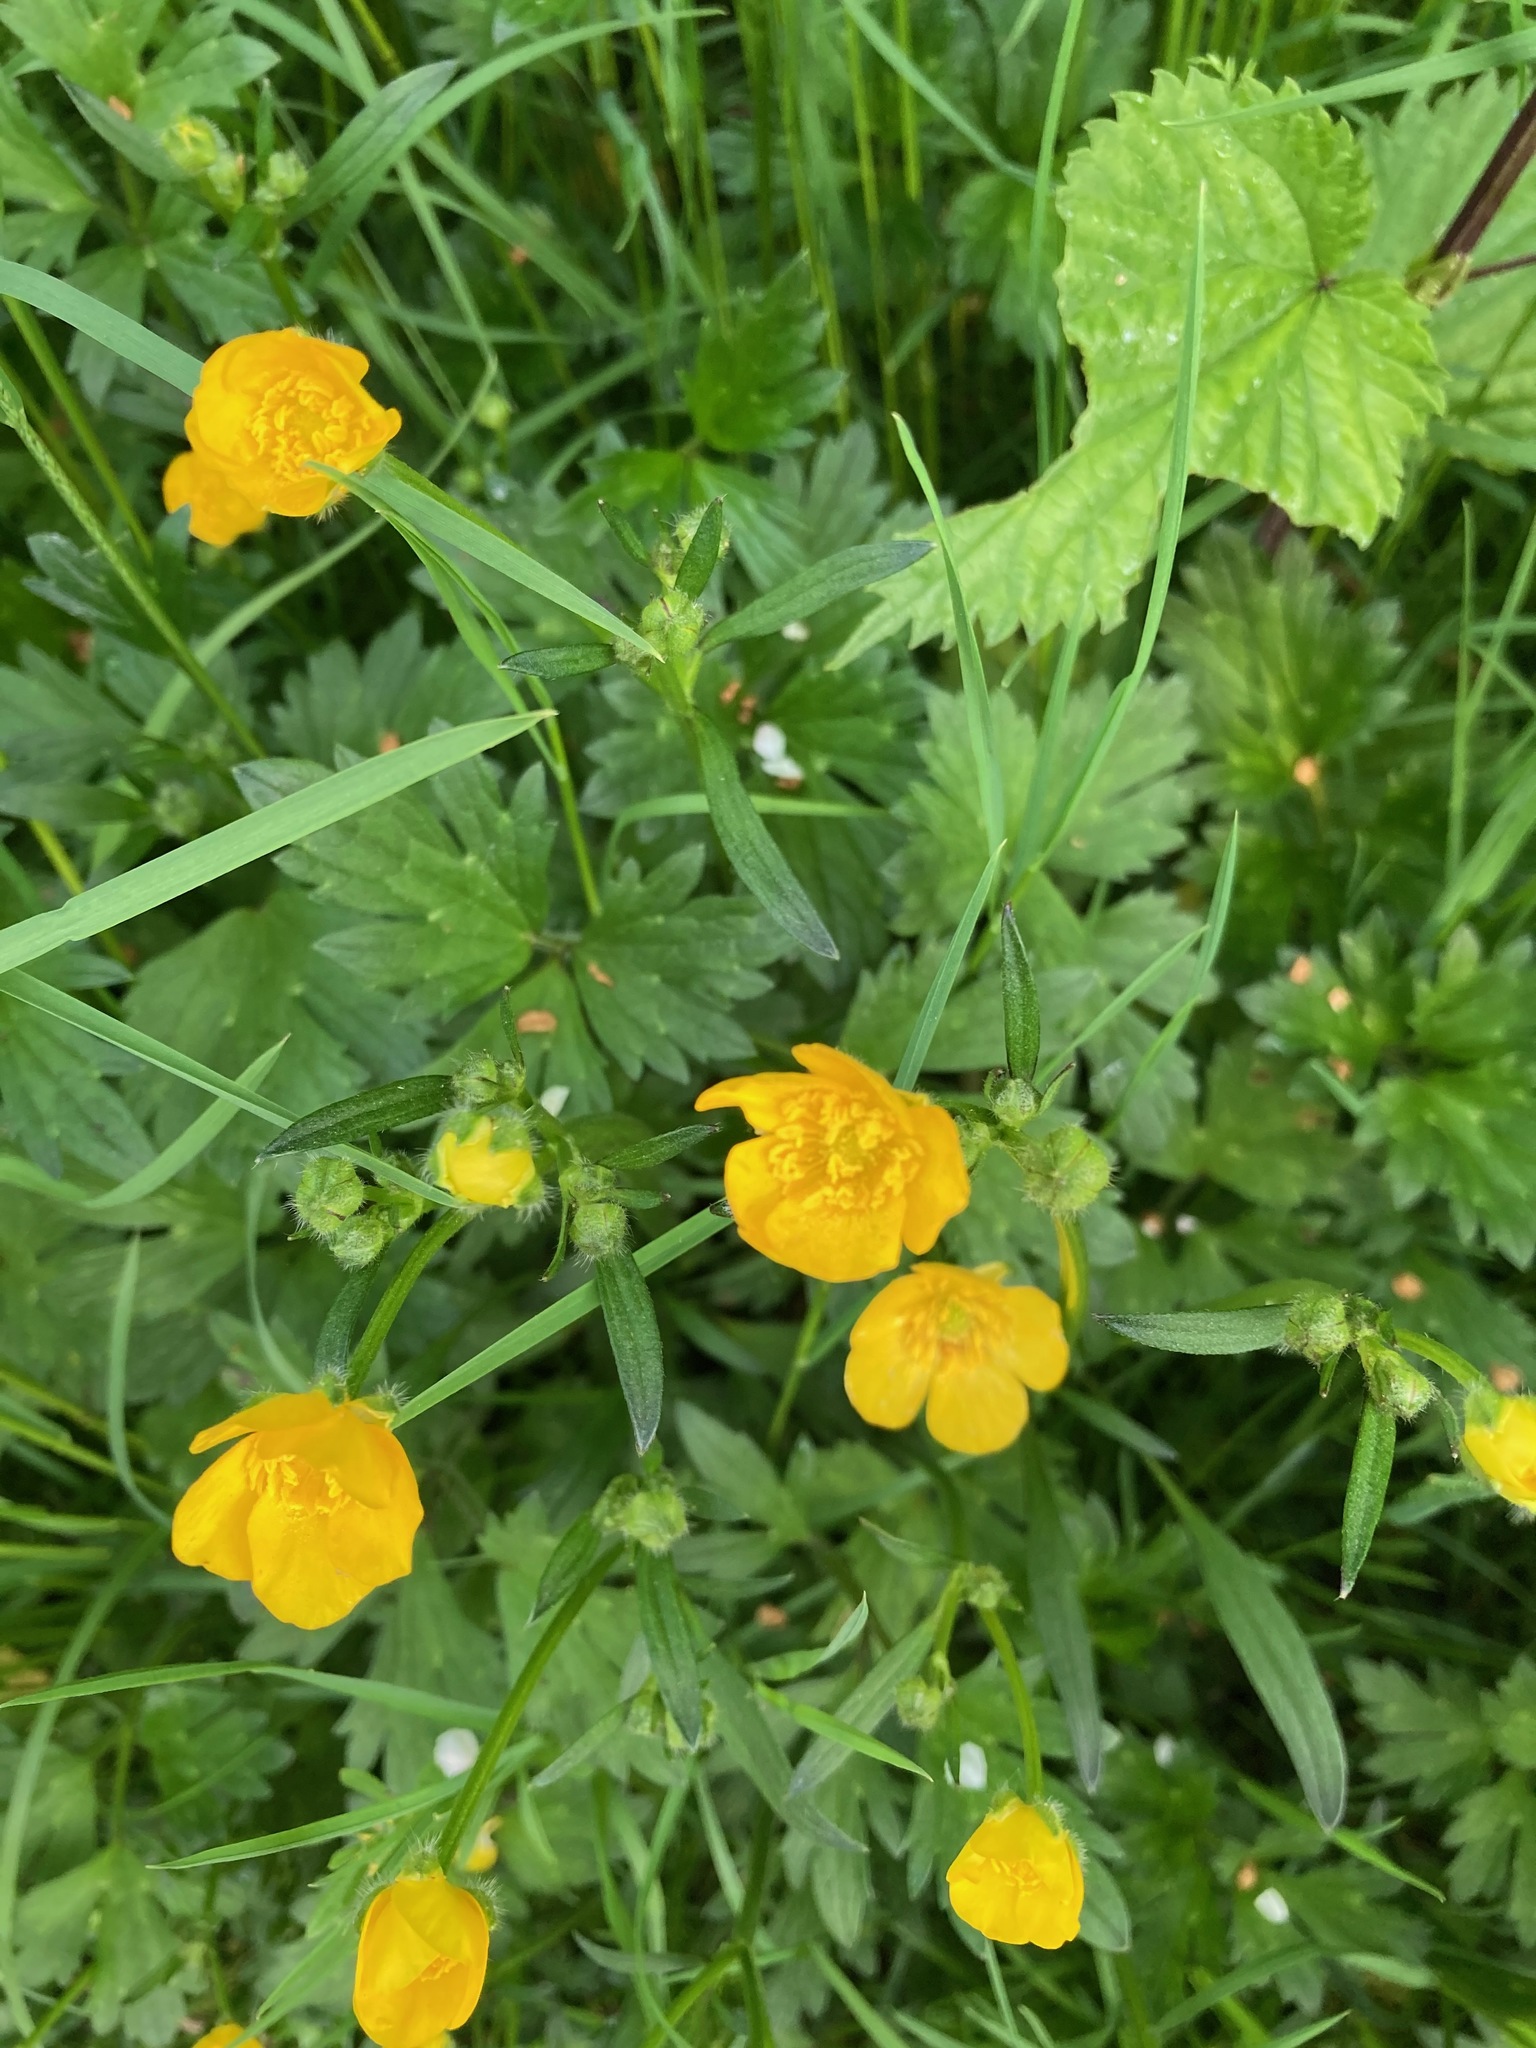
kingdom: Plantae
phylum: Tracheophyta
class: Magnoliopsida
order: Ranunculales
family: Ranunculaceae
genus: Ranunculus
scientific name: Ranunculus repens
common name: Creeping buttercup
